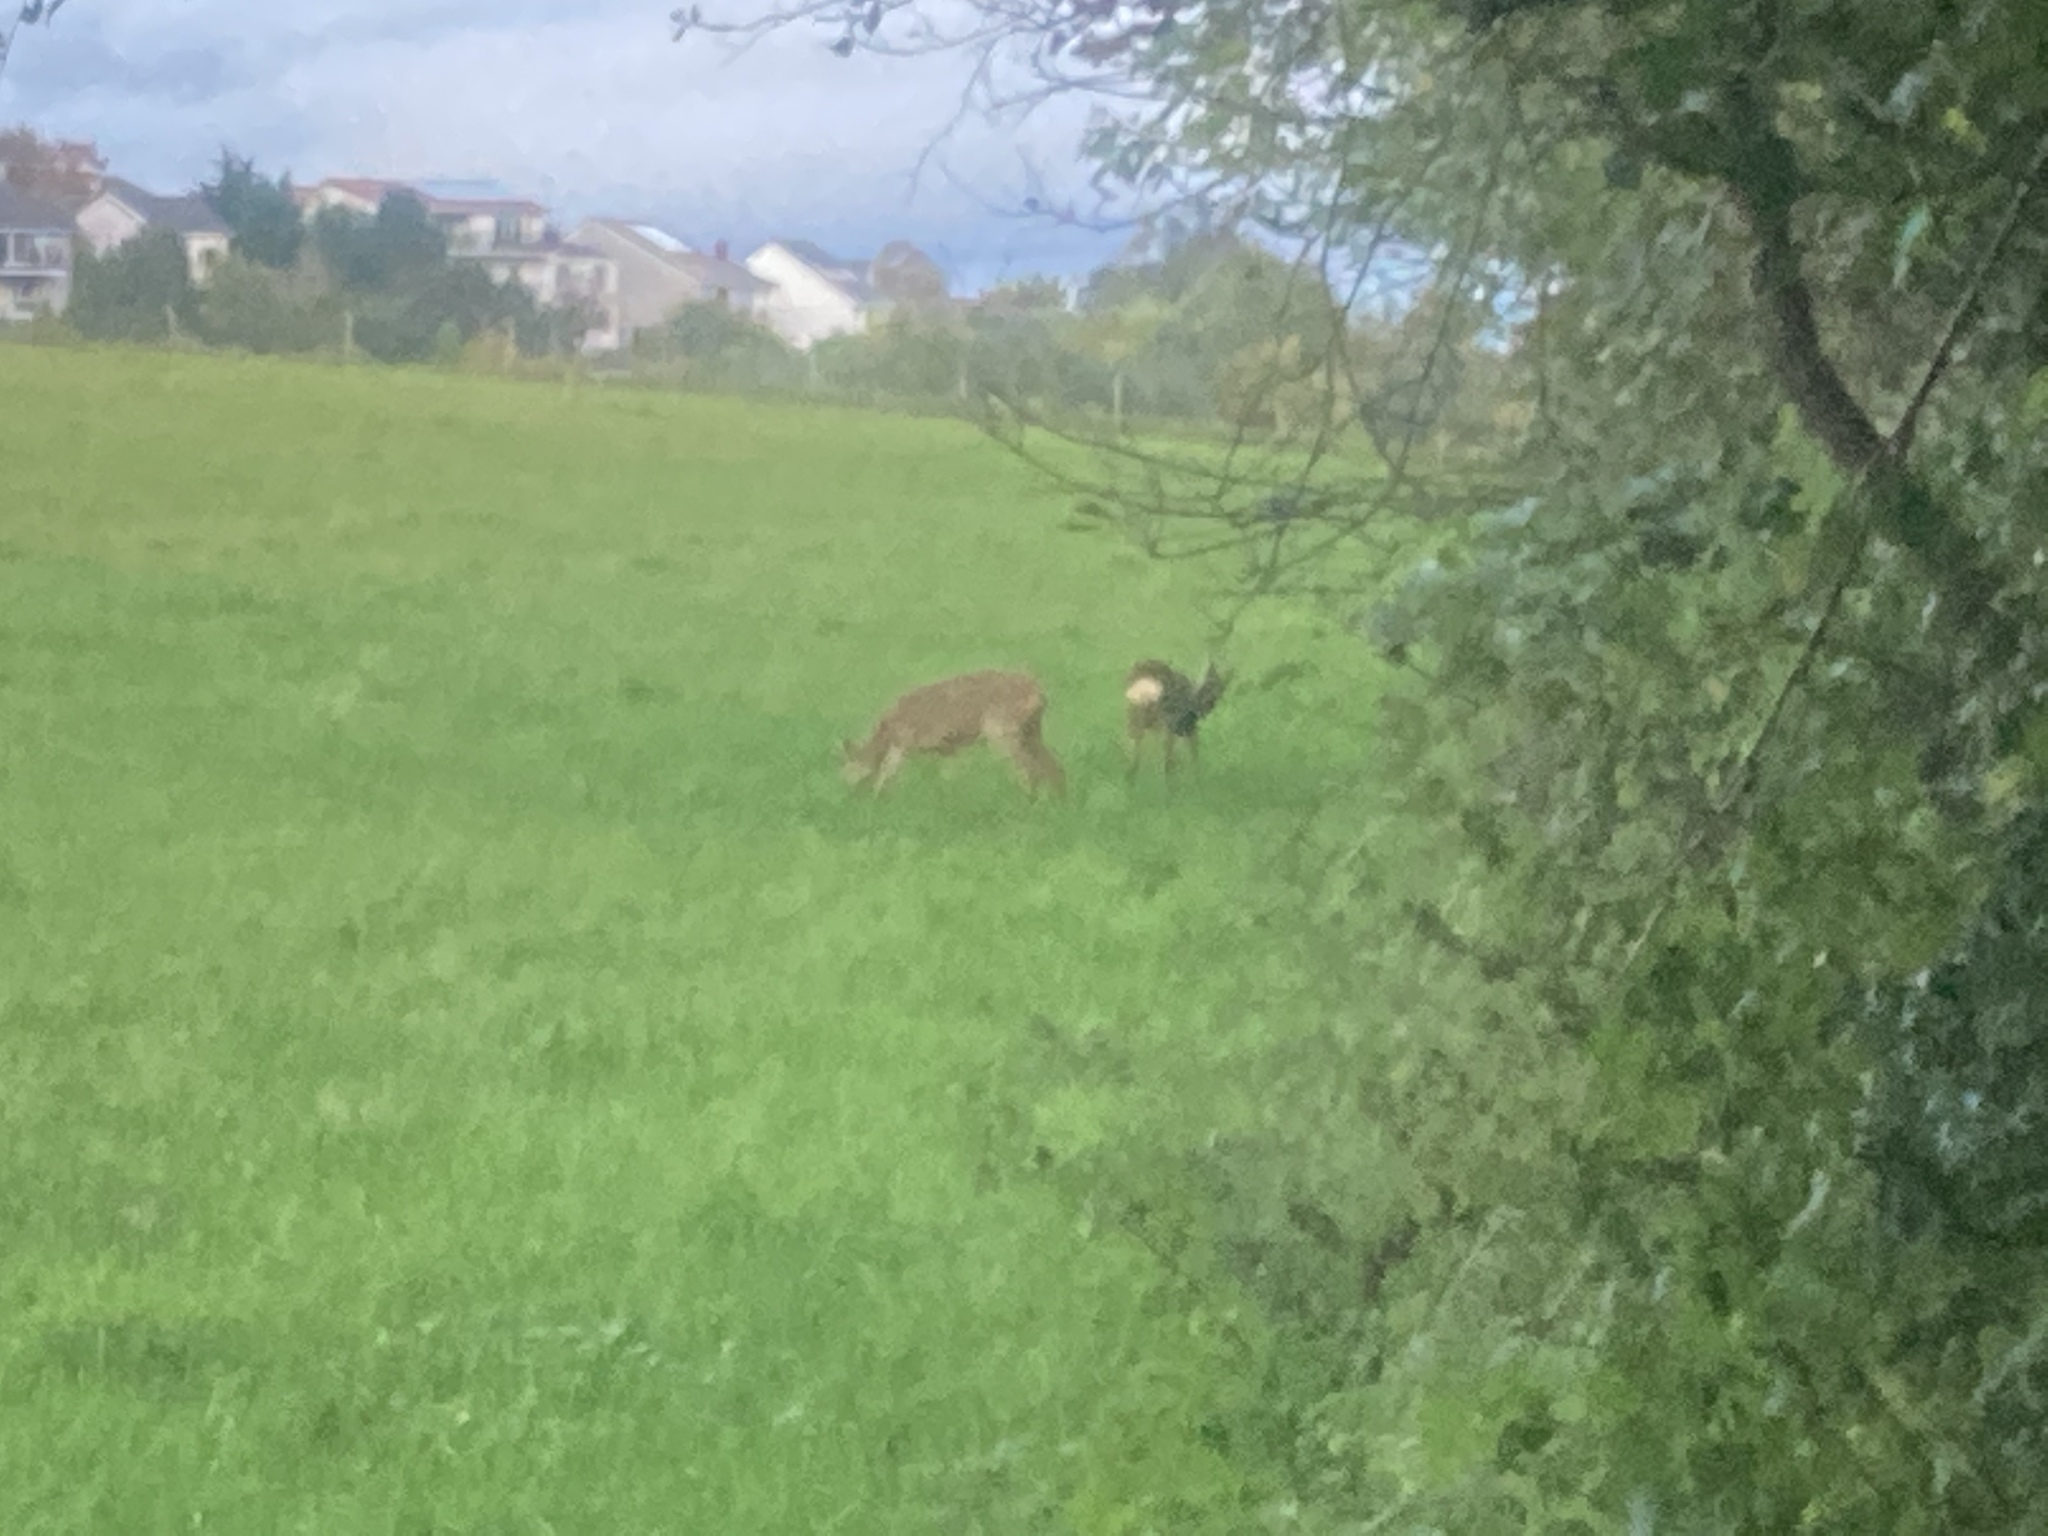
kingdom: Animalia
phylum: Chordata
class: Mammalia
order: Artiodactyla
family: Cervidae
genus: Capreolus
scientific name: Capreolus capreolus
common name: Western roe deer
